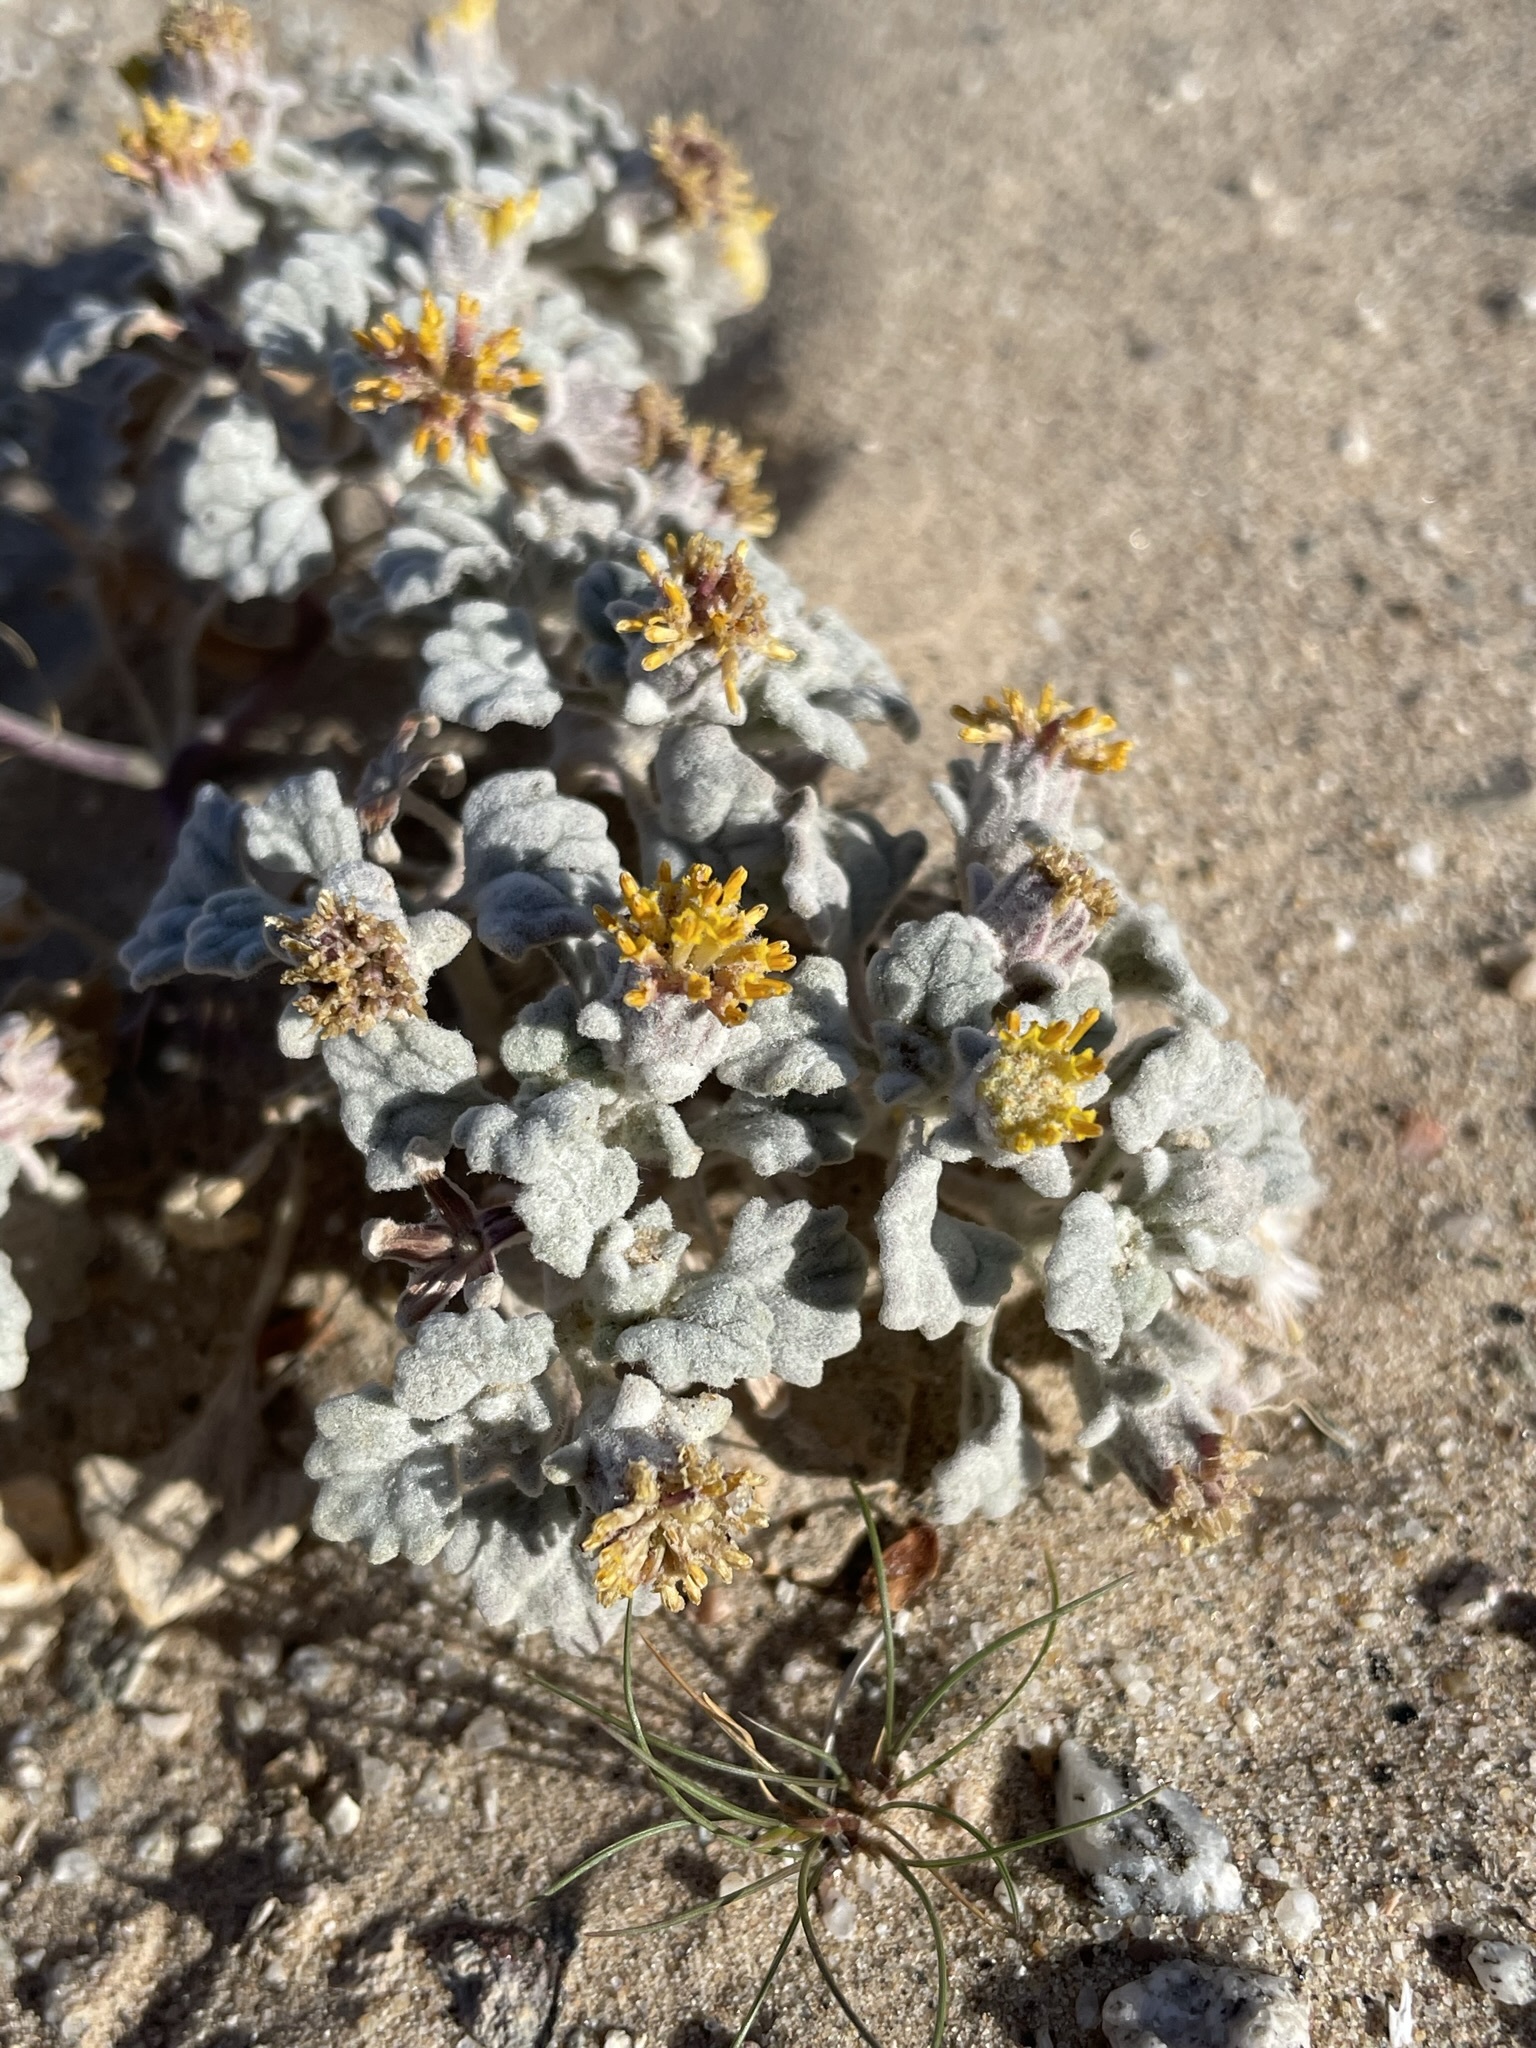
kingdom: Plantae
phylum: Tracheophyta
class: Magnoliopsida
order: Asterales
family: Asteraceae
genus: Psathyrotes
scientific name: Psathyrotes ramosissima
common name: Turtleback
